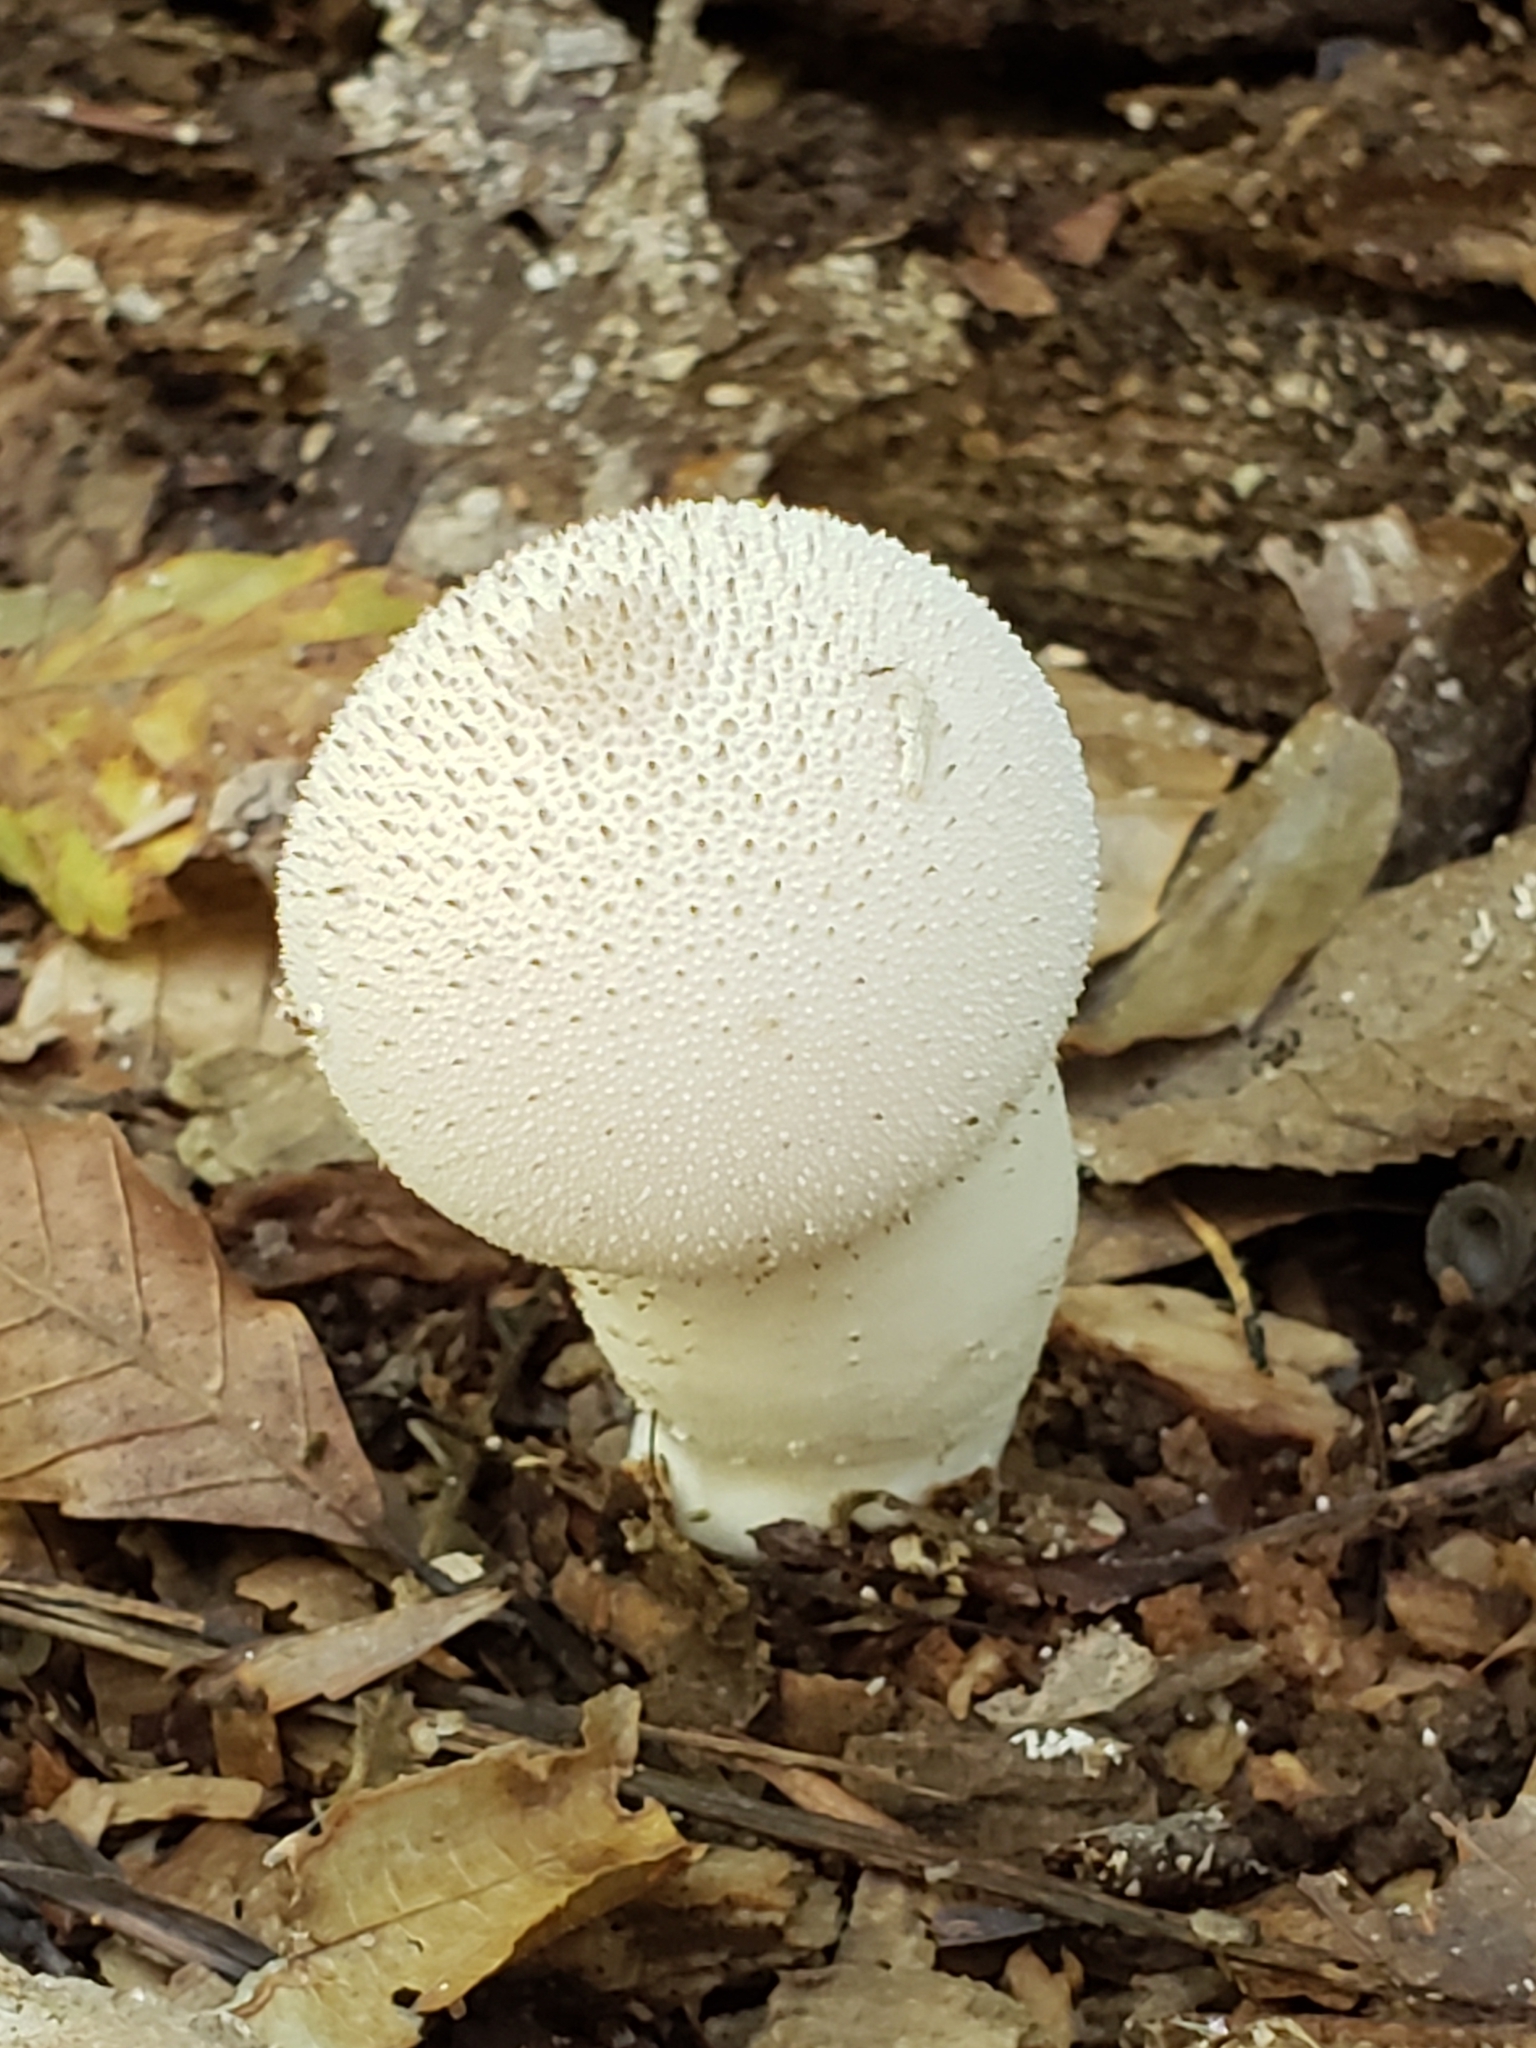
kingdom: Fungi
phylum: Basidiomycota
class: Agaricomycetes
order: Agaricales
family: Lycoperdaceae
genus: Lycoperdon
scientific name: Lycoperdon perlatum
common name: Common puffball
